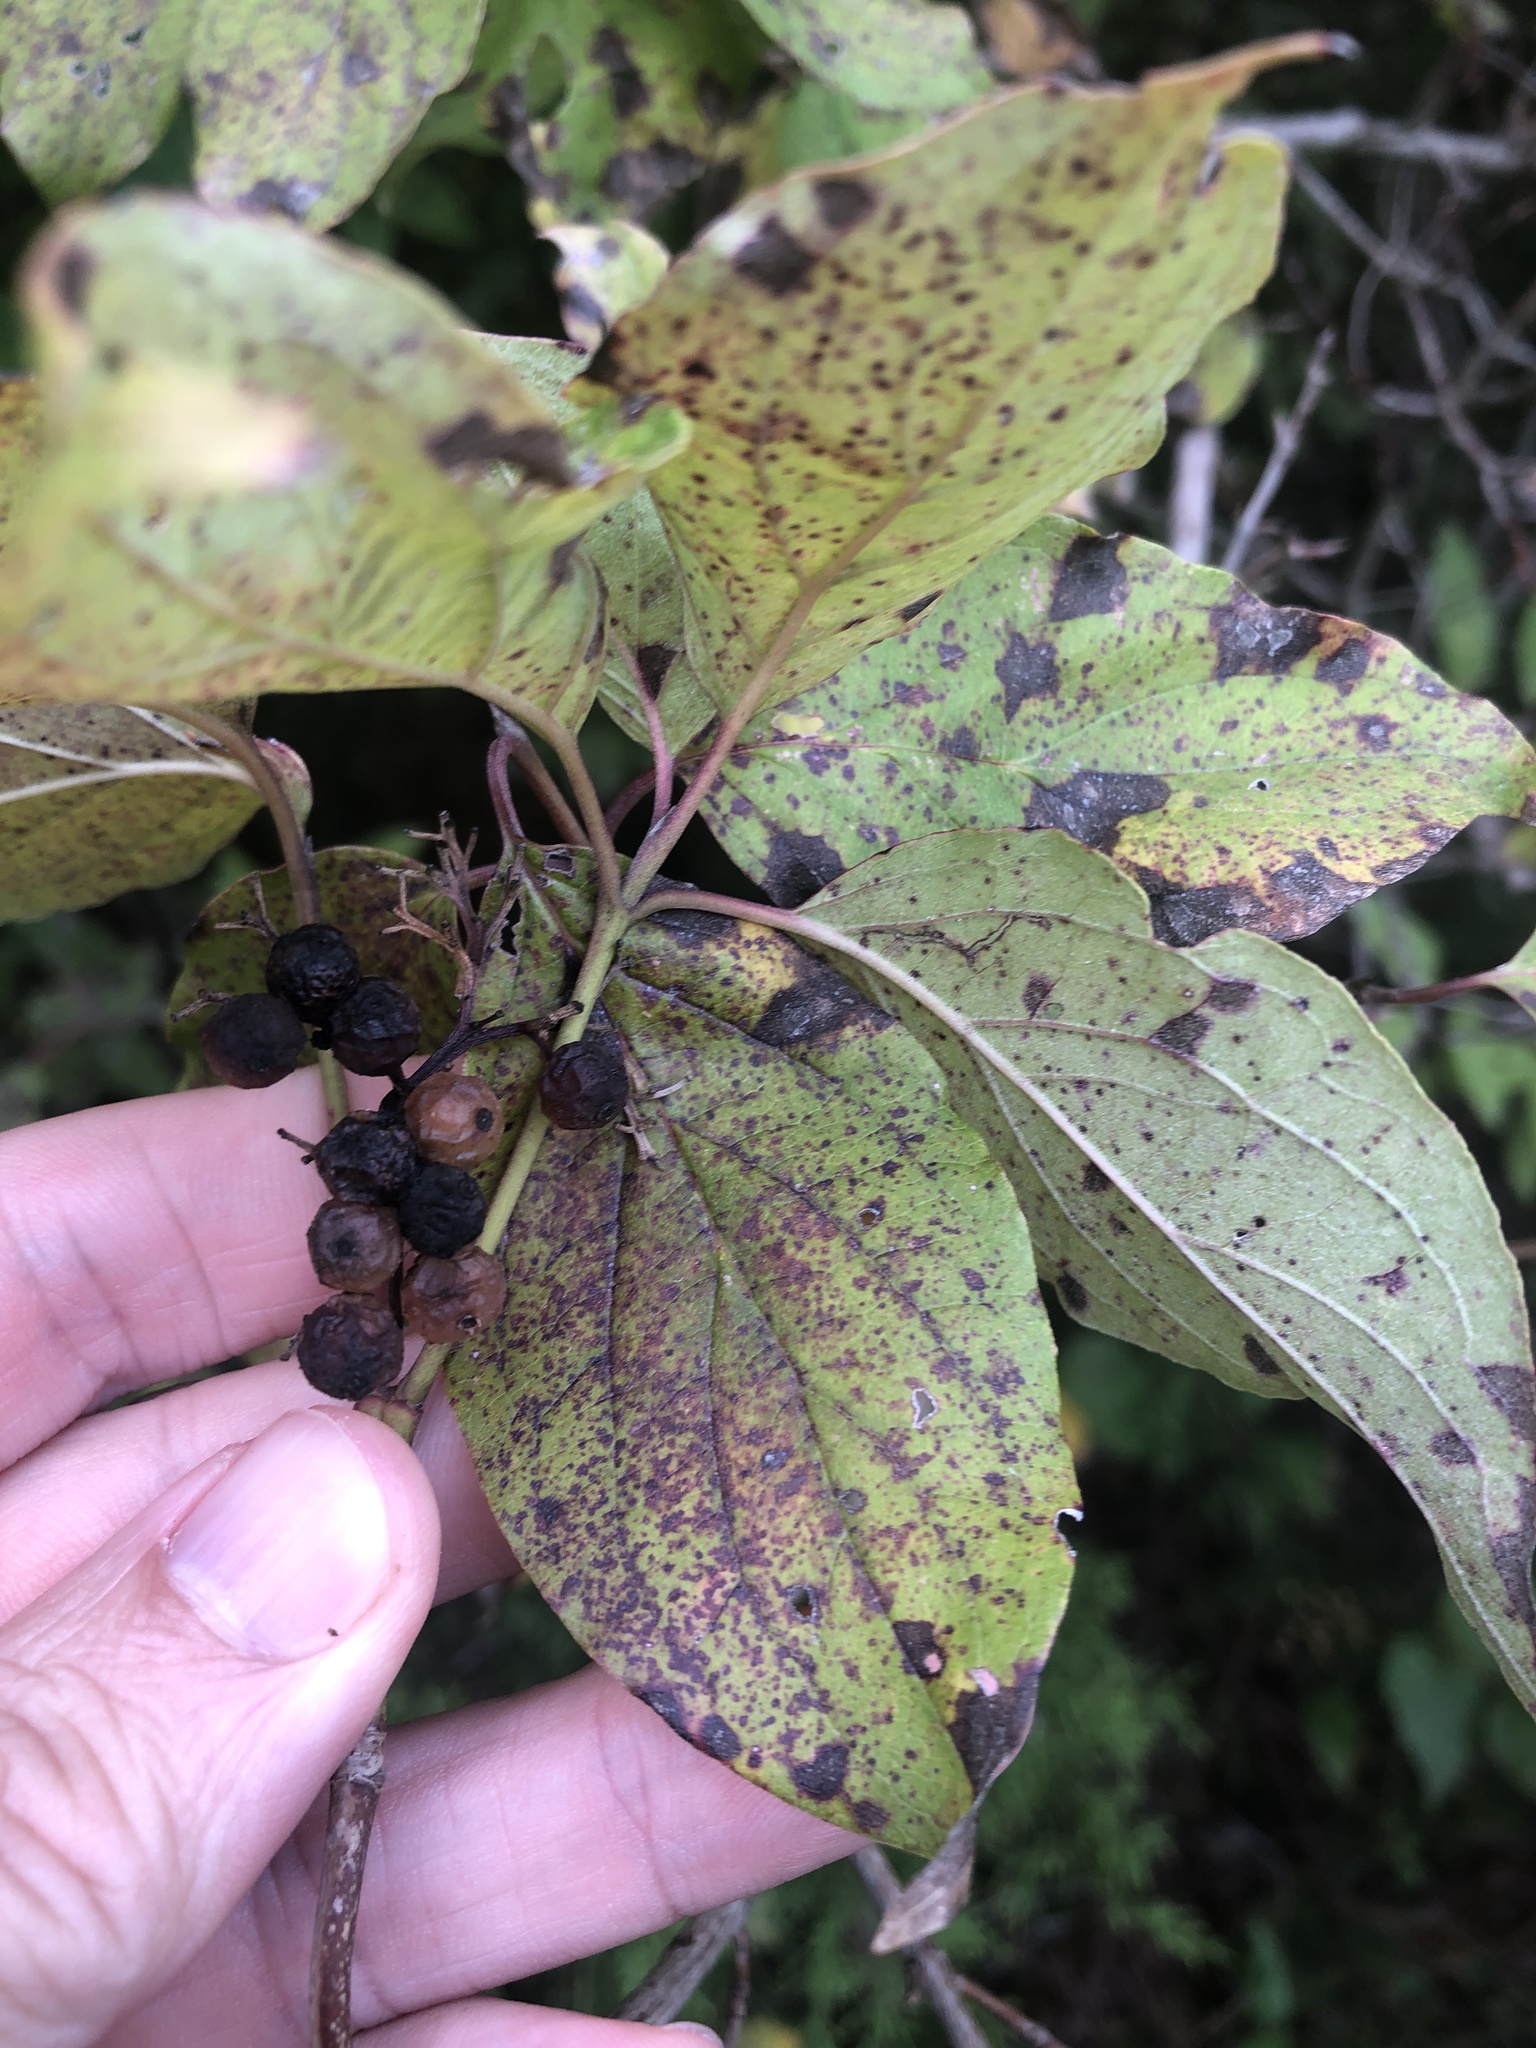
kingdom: Plantae
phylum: Tracheophyta
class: Magnoliopsida
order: Cornales
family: Cornaceae
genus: Cornus
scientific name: Cornus drummondii
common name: Rough-leaf dogwood
